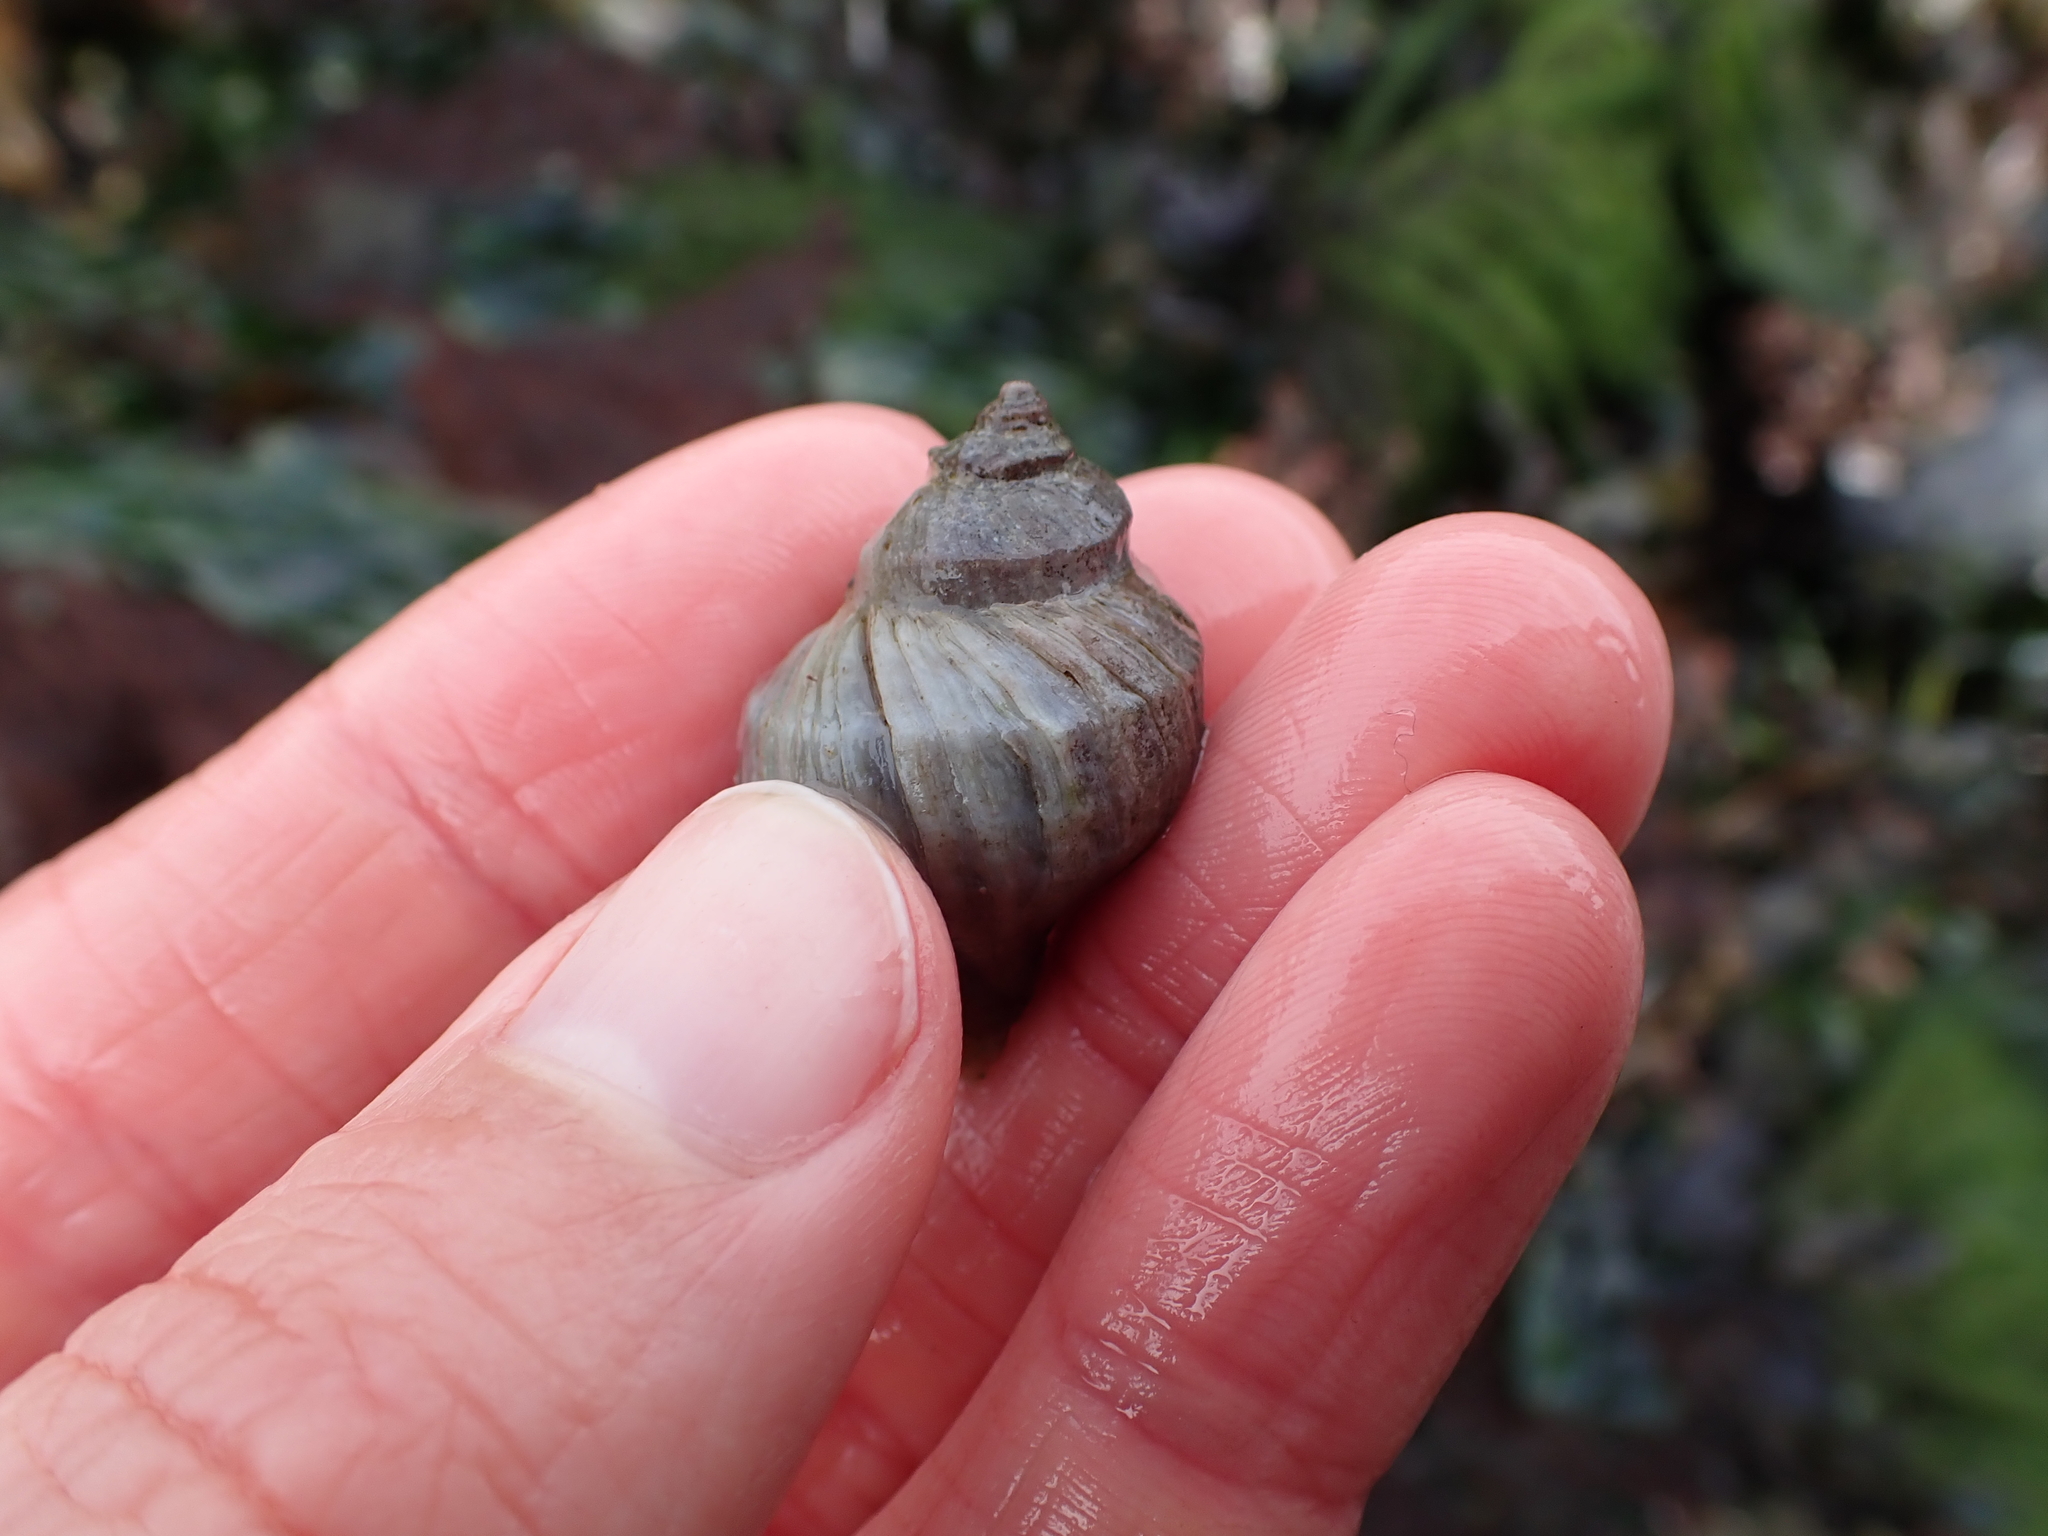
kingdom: Animalia
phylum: Mollusca
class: Gastropoda
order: Neogastropoda
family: Muricidae
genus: Nucella
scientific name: Nucella lamellosa
